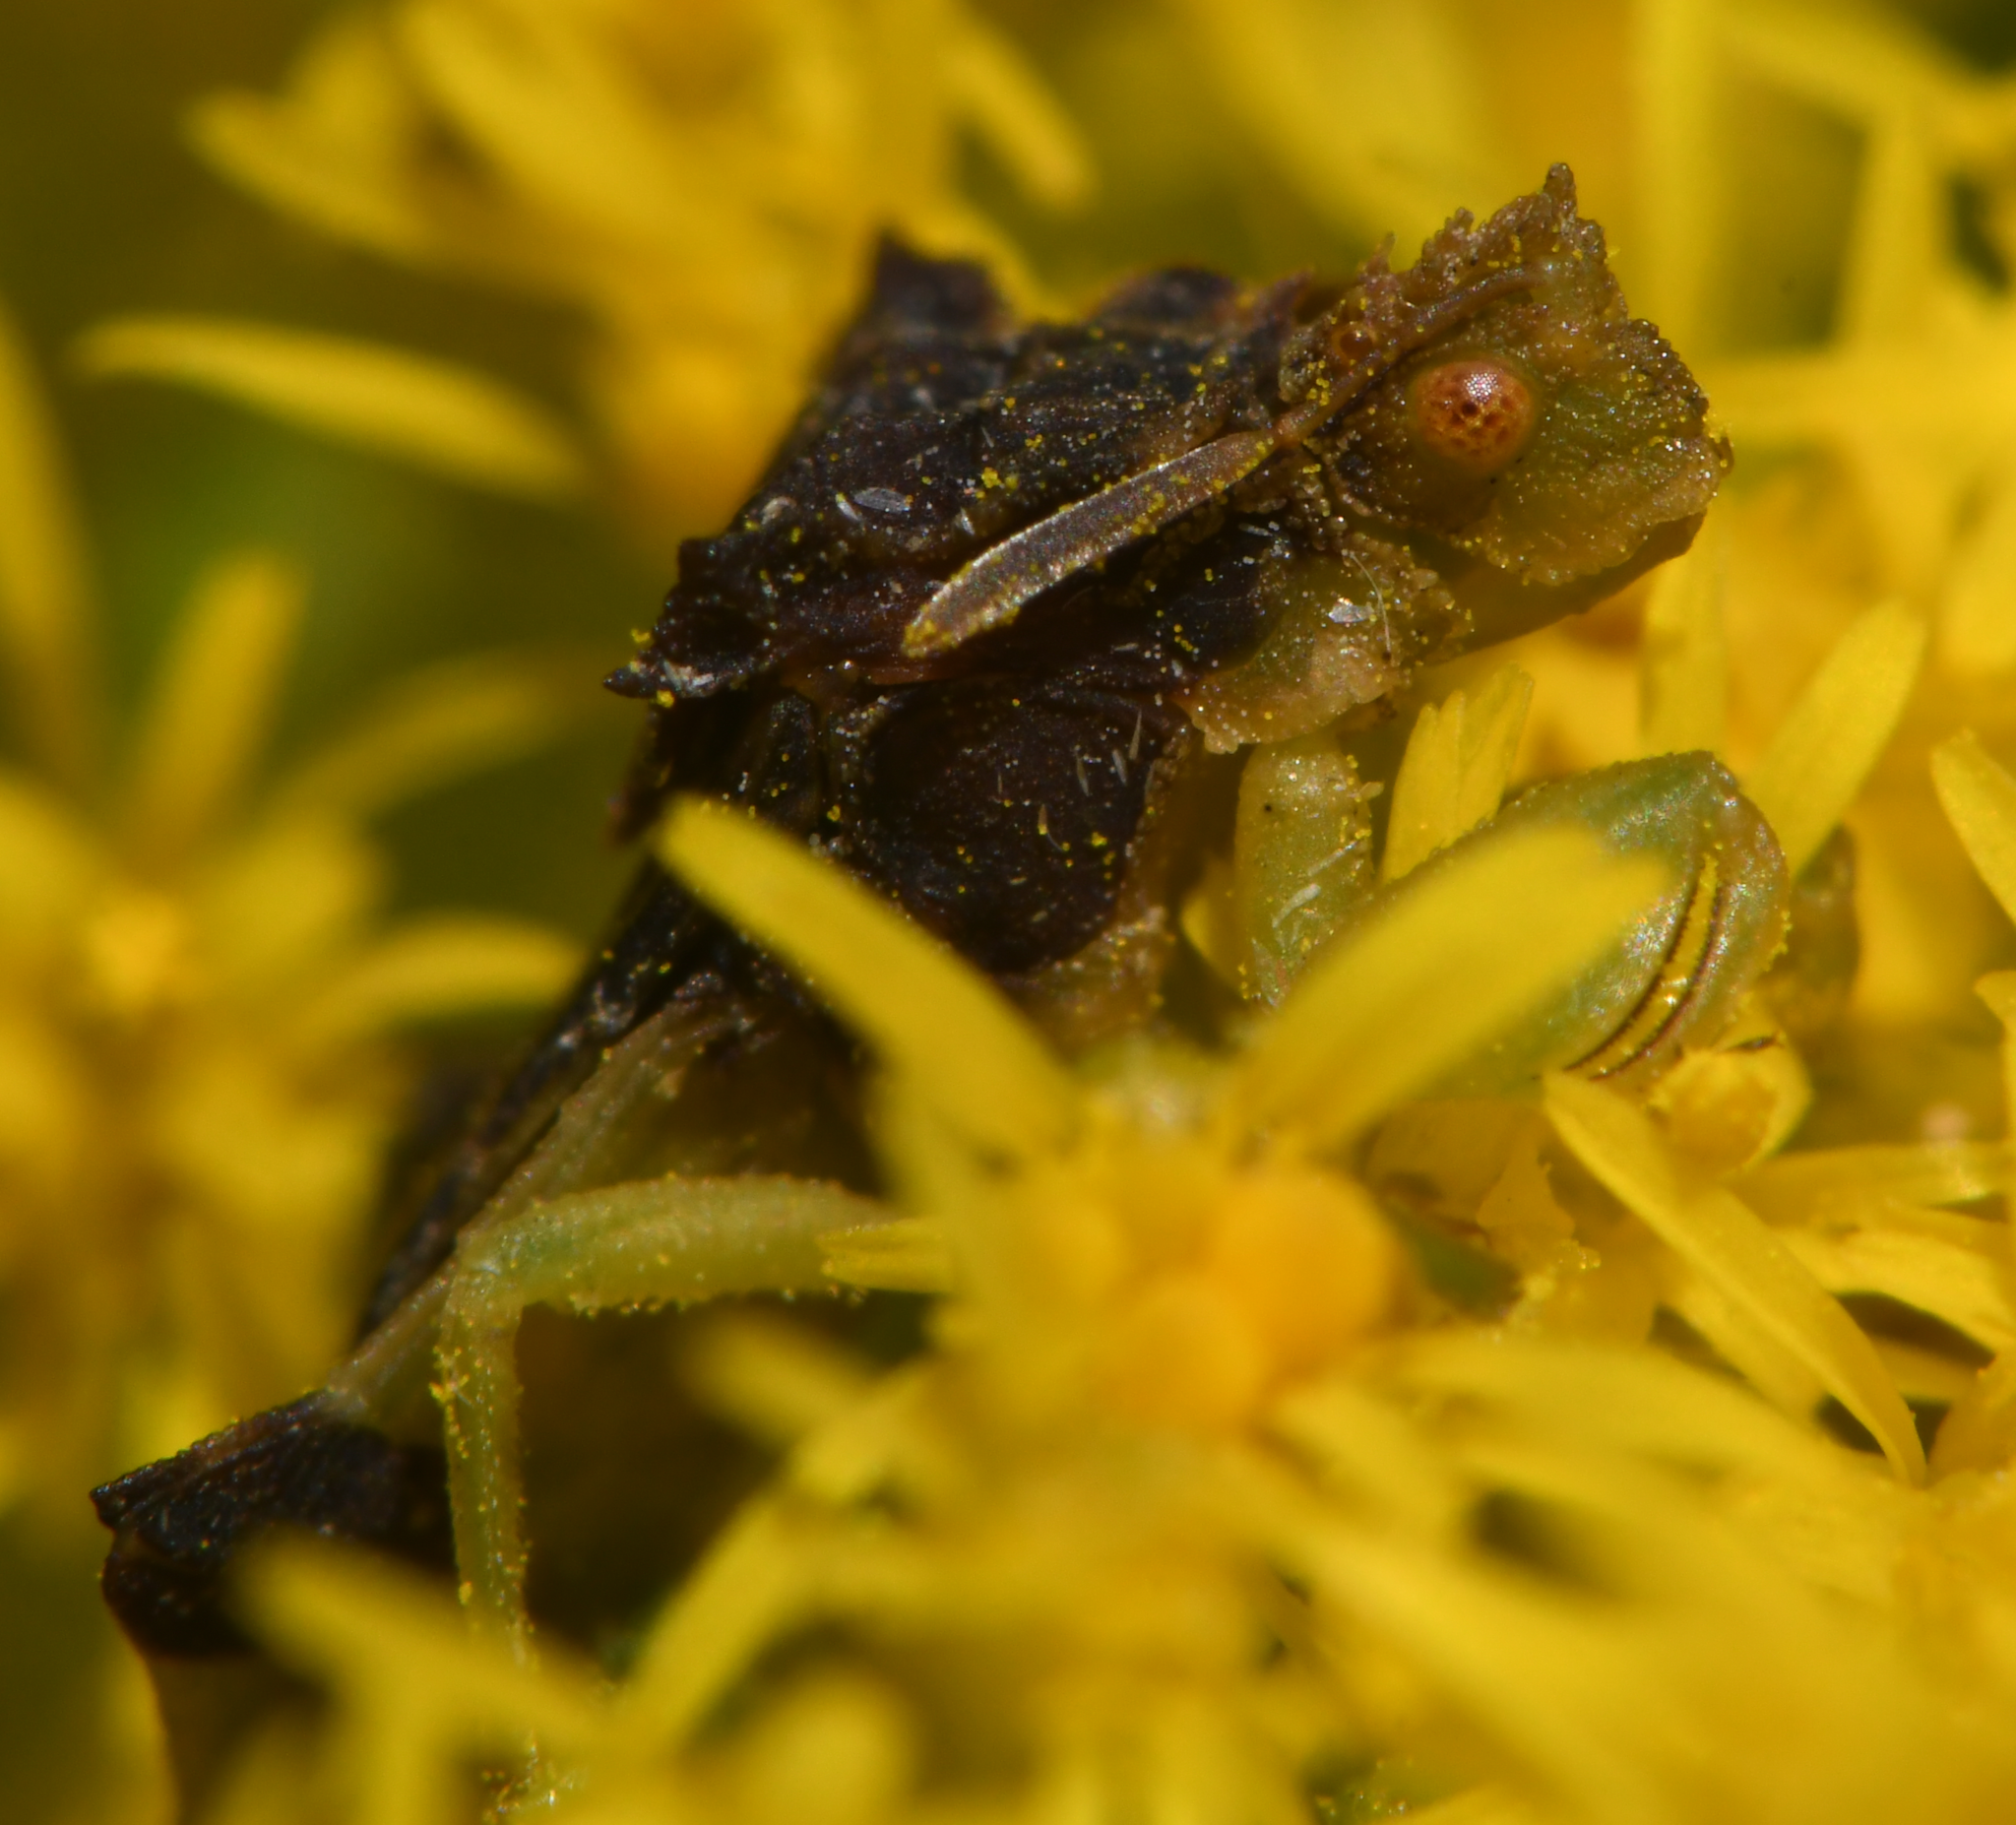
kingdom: Animalia
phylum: Arthropoda
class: Insecta
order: Hemiptera
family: Reduviidae
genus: Phymata
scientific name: Phymata pennsylvanica
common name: Pennsylvania ambush bug
